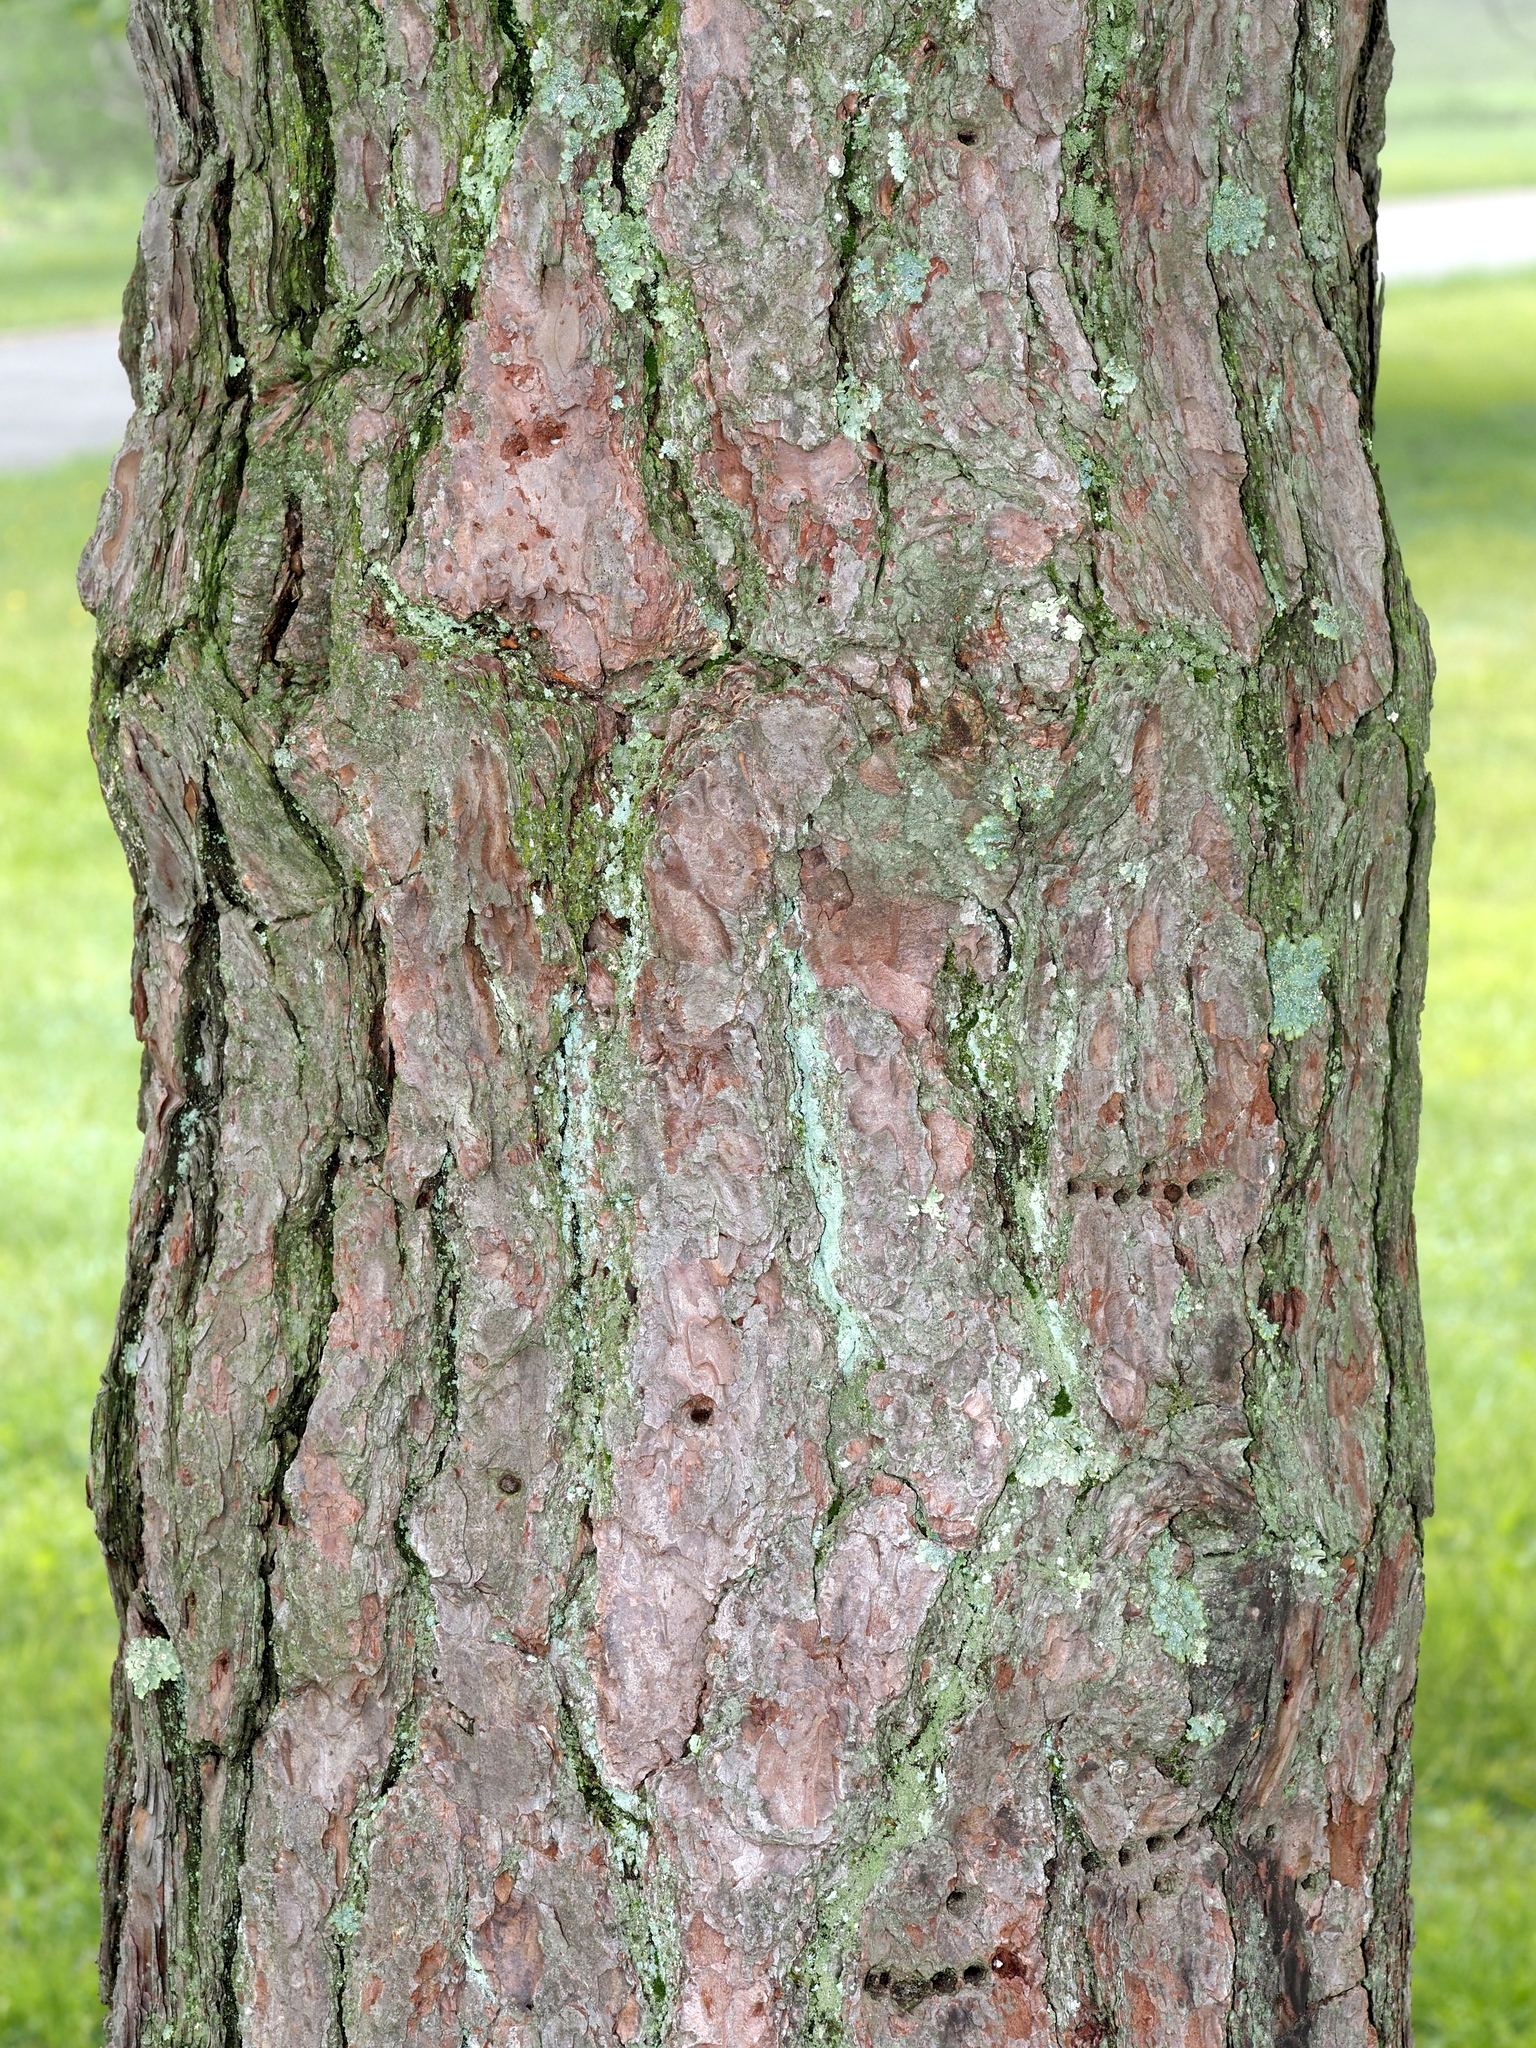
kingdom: Plantae
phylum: Tracheophyta
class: Pinopsida
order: Pinales
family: Pinaceae
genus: Pinus
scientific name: Pinus pungens
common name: Hickory pine
